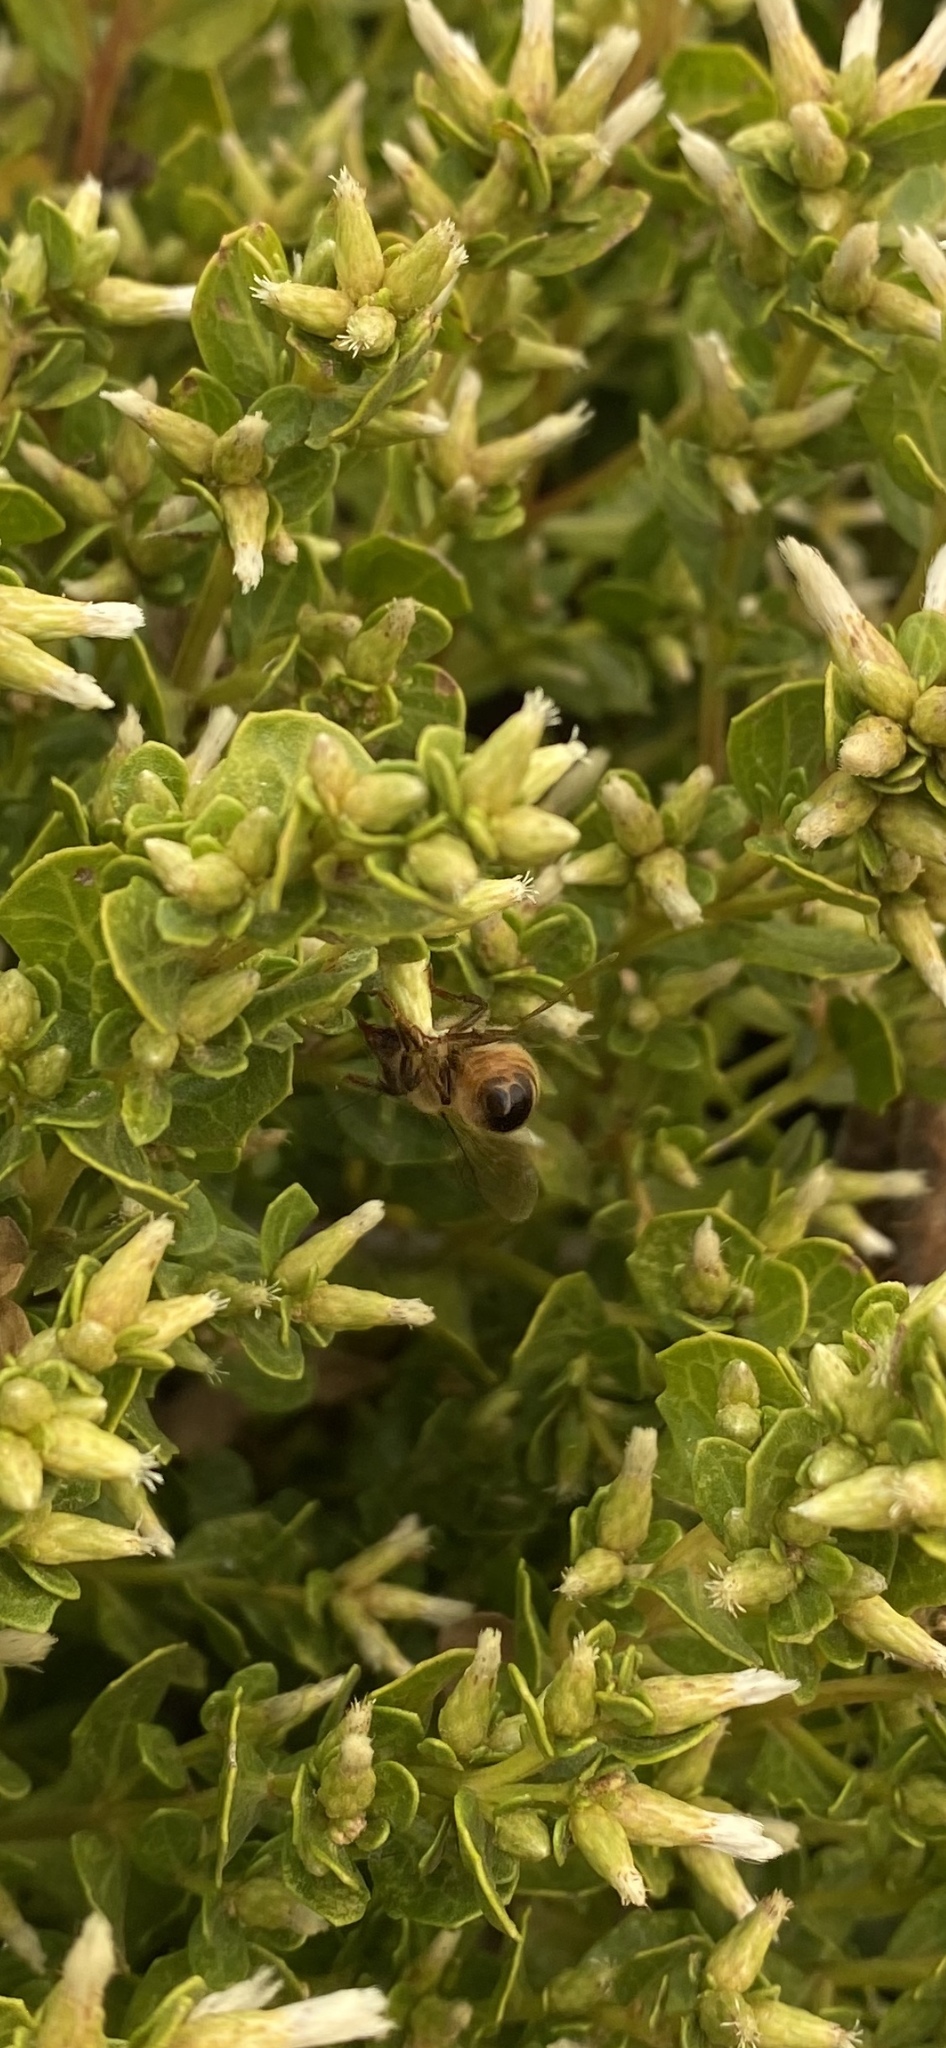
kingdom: Animalia
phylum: Arthropoda
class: Insecta
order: Hymenoptera
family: Apidae
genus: Apis
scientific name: Apis mellifera
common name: Honey bee
